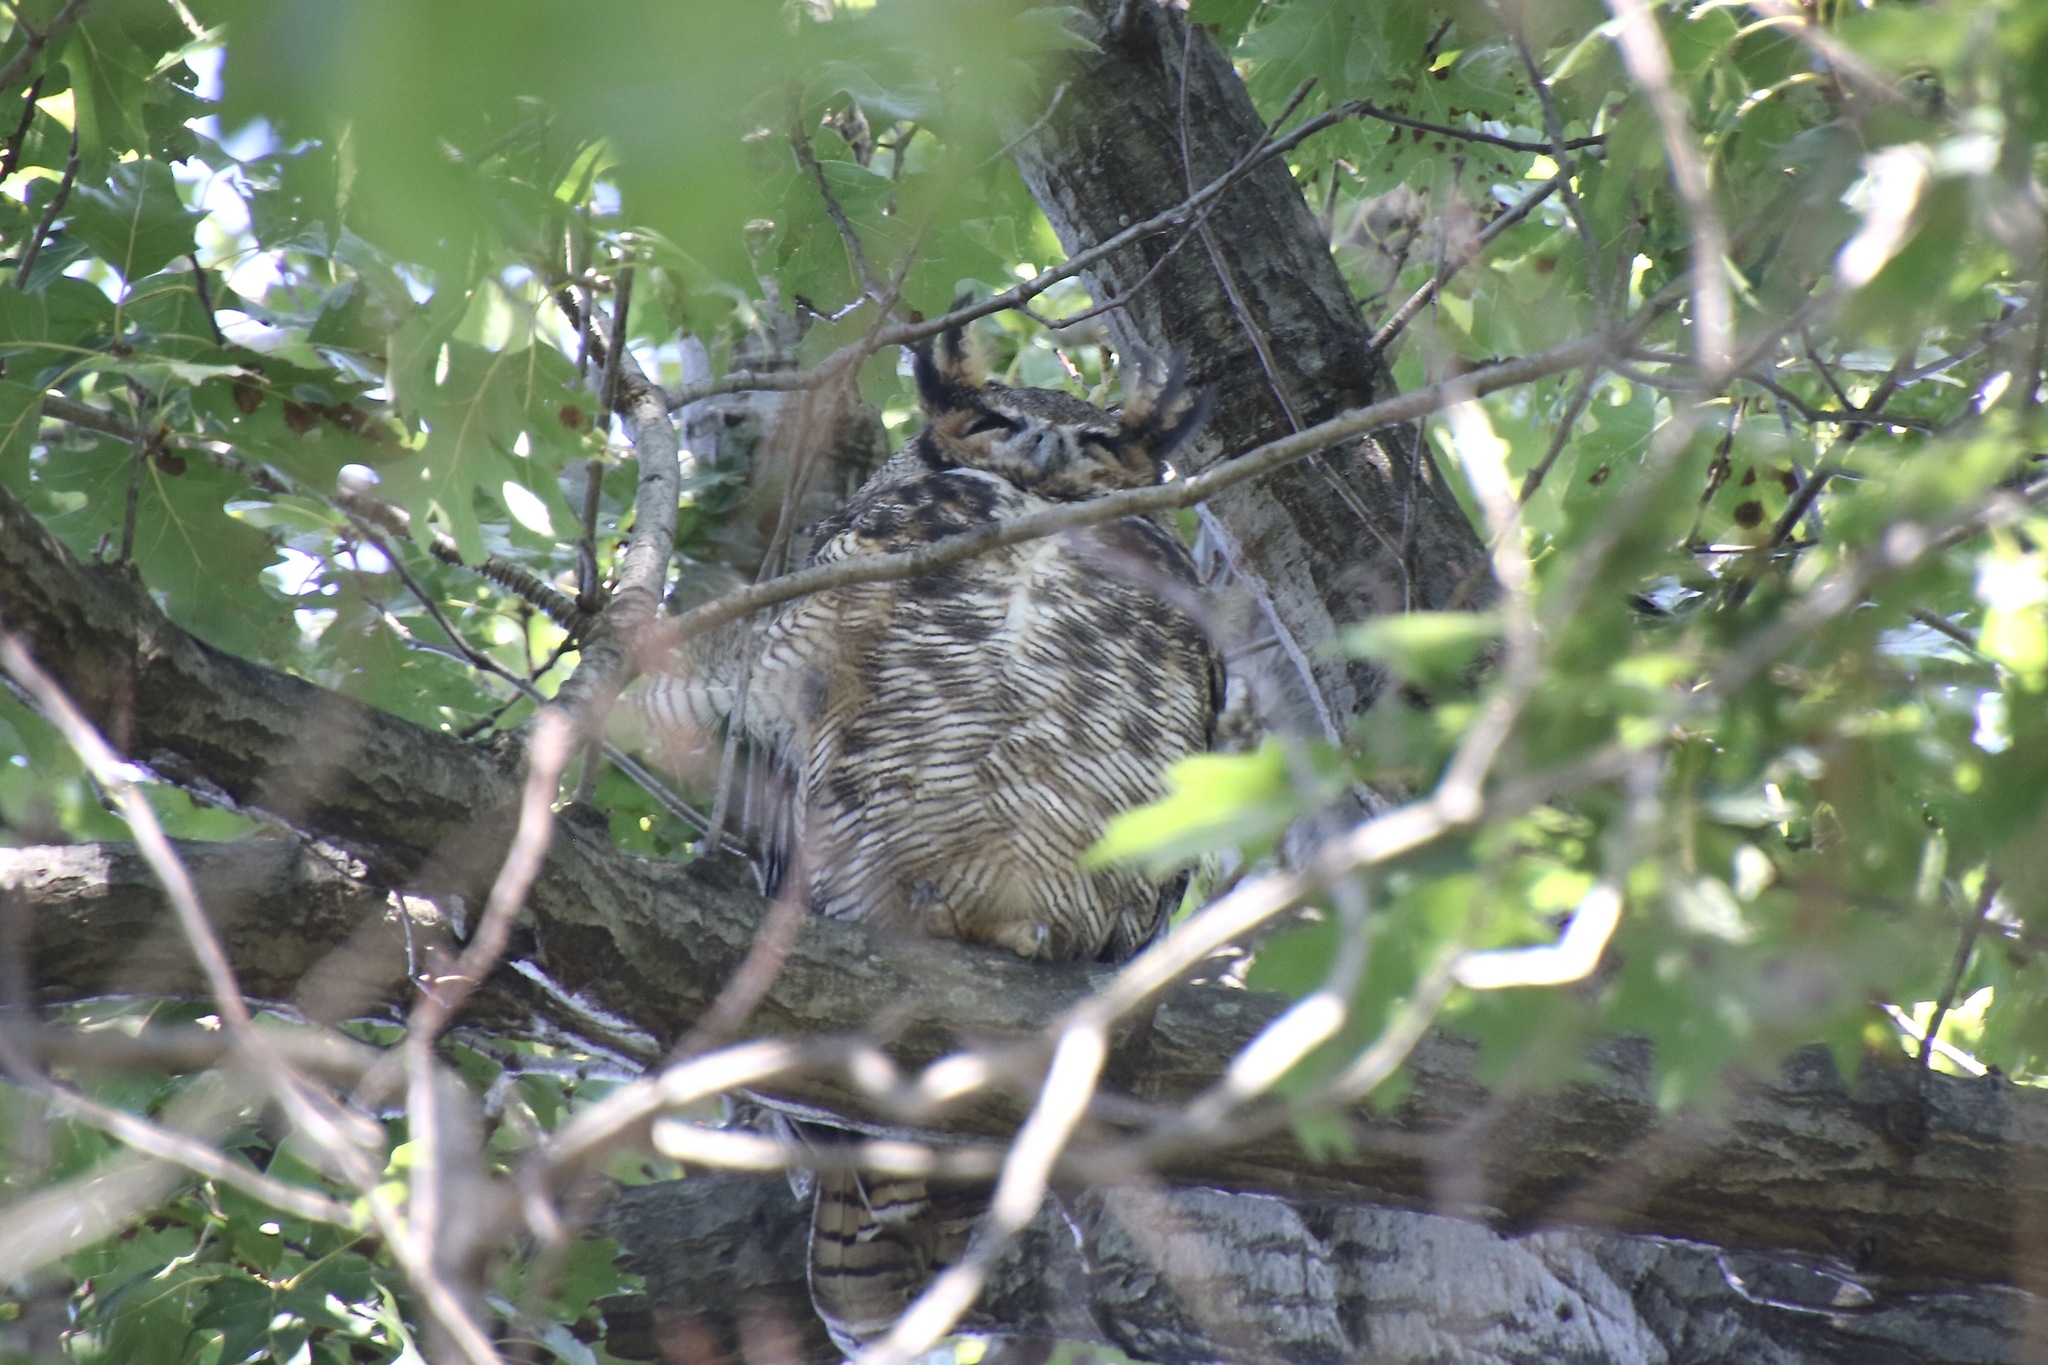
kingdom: Animalia
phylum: Chordata
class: Aves
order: Strigiformes
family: Strigidae
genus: Bubo
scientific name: Bubo virginianus
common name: Great horned owl
